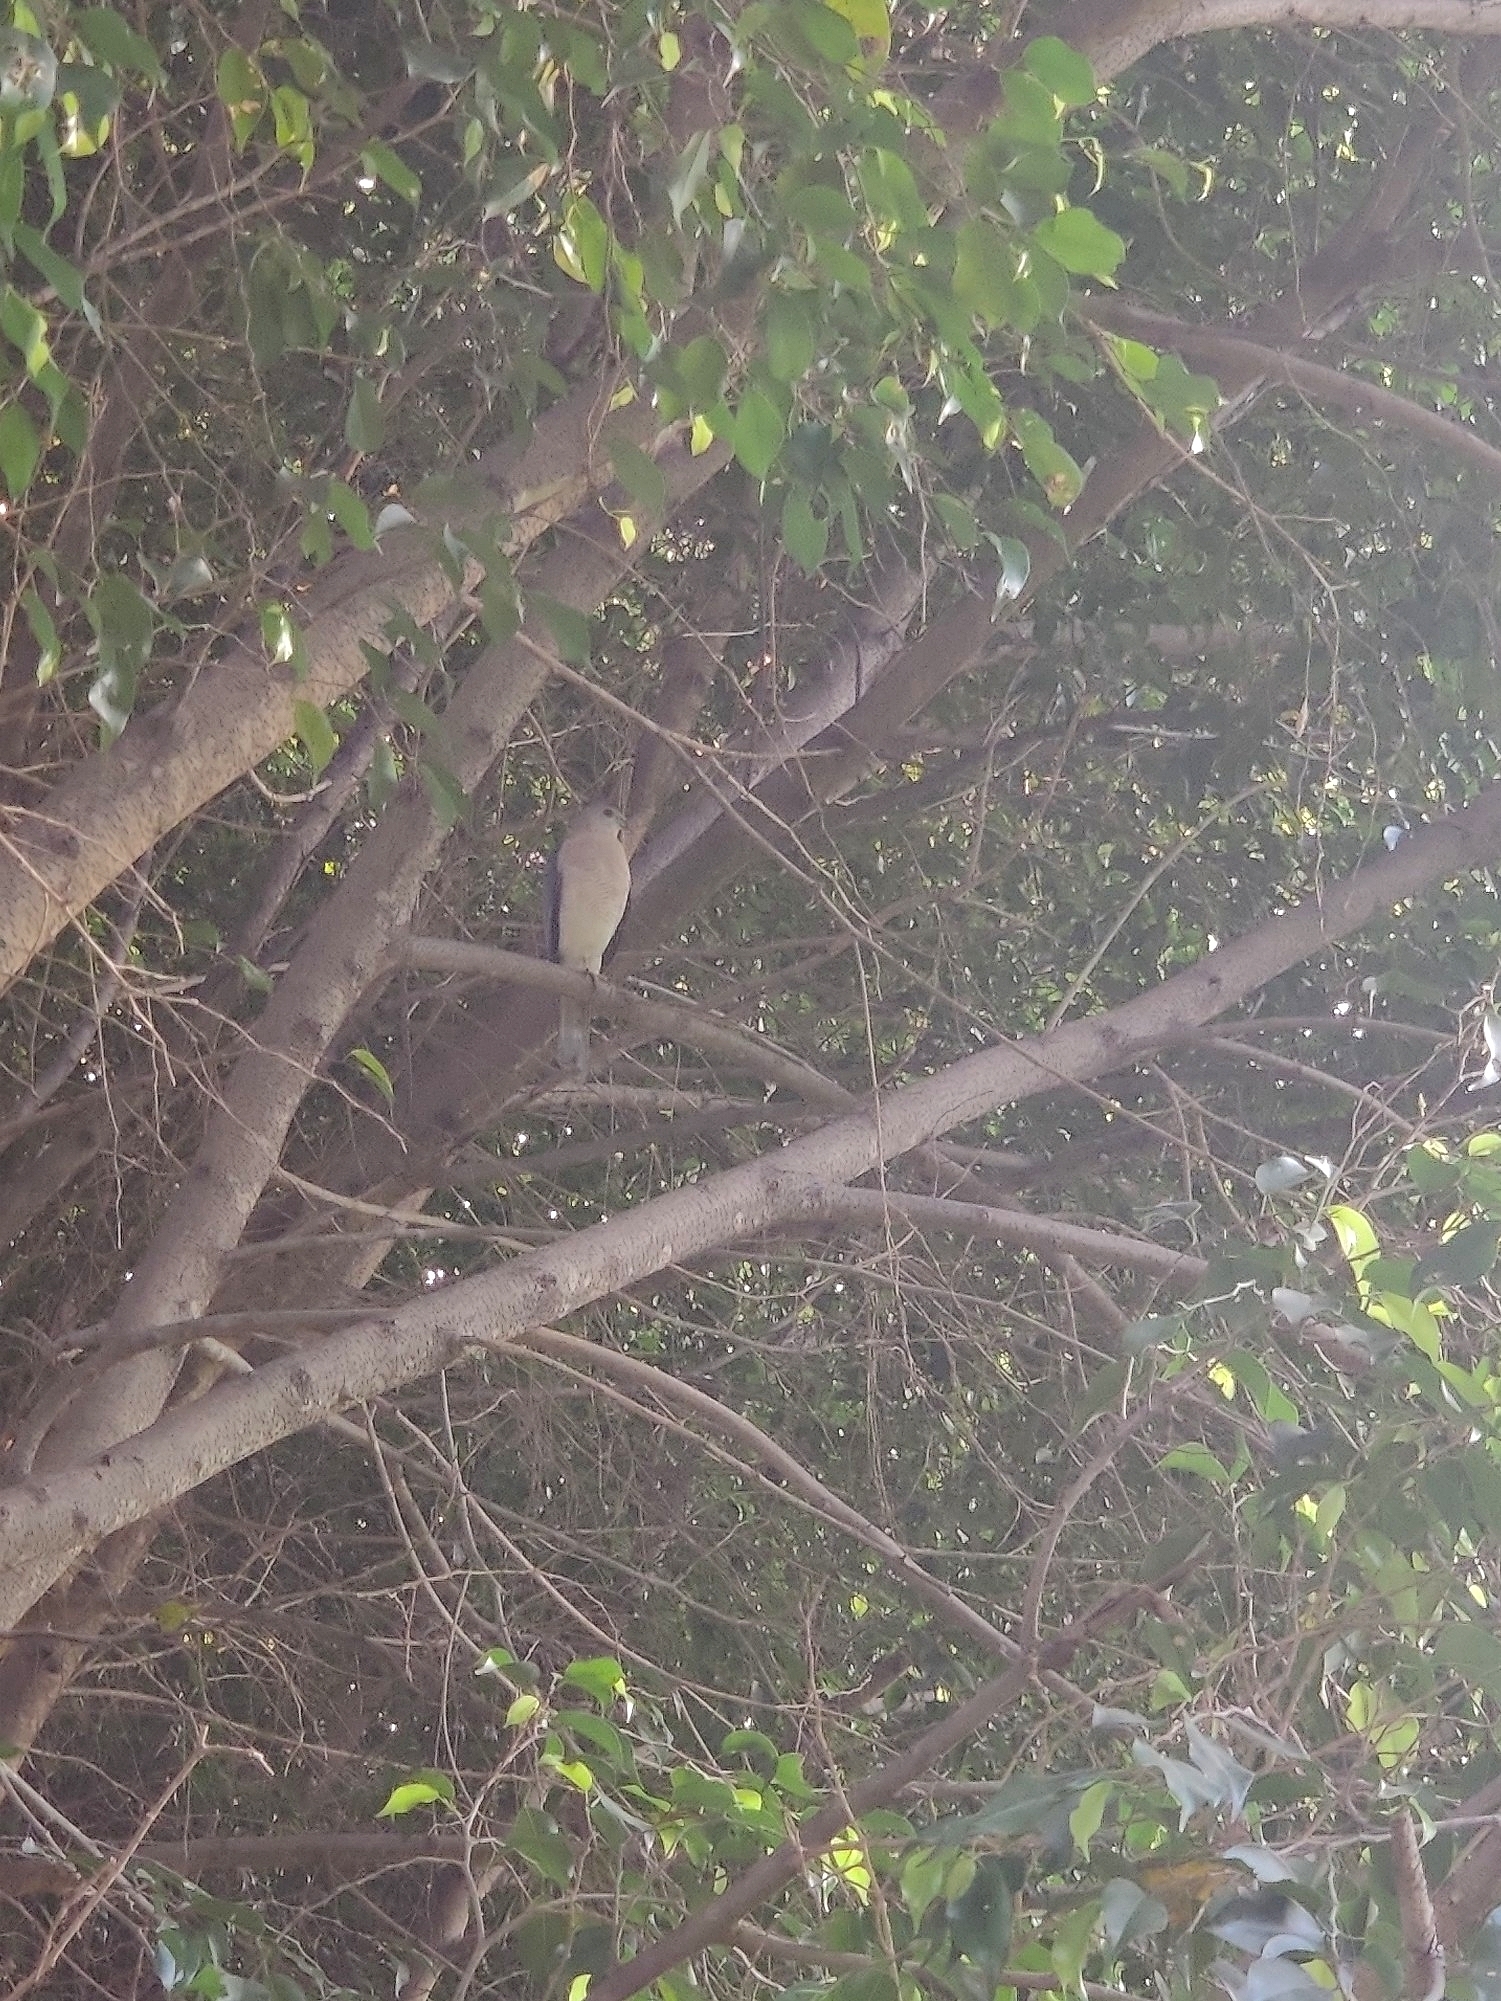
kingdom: Animalia
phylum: Chordata
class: Aves
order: Accipitriformes
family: Accipitridae
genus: Accipiter
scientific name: Accipiter badius
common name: Shikra
